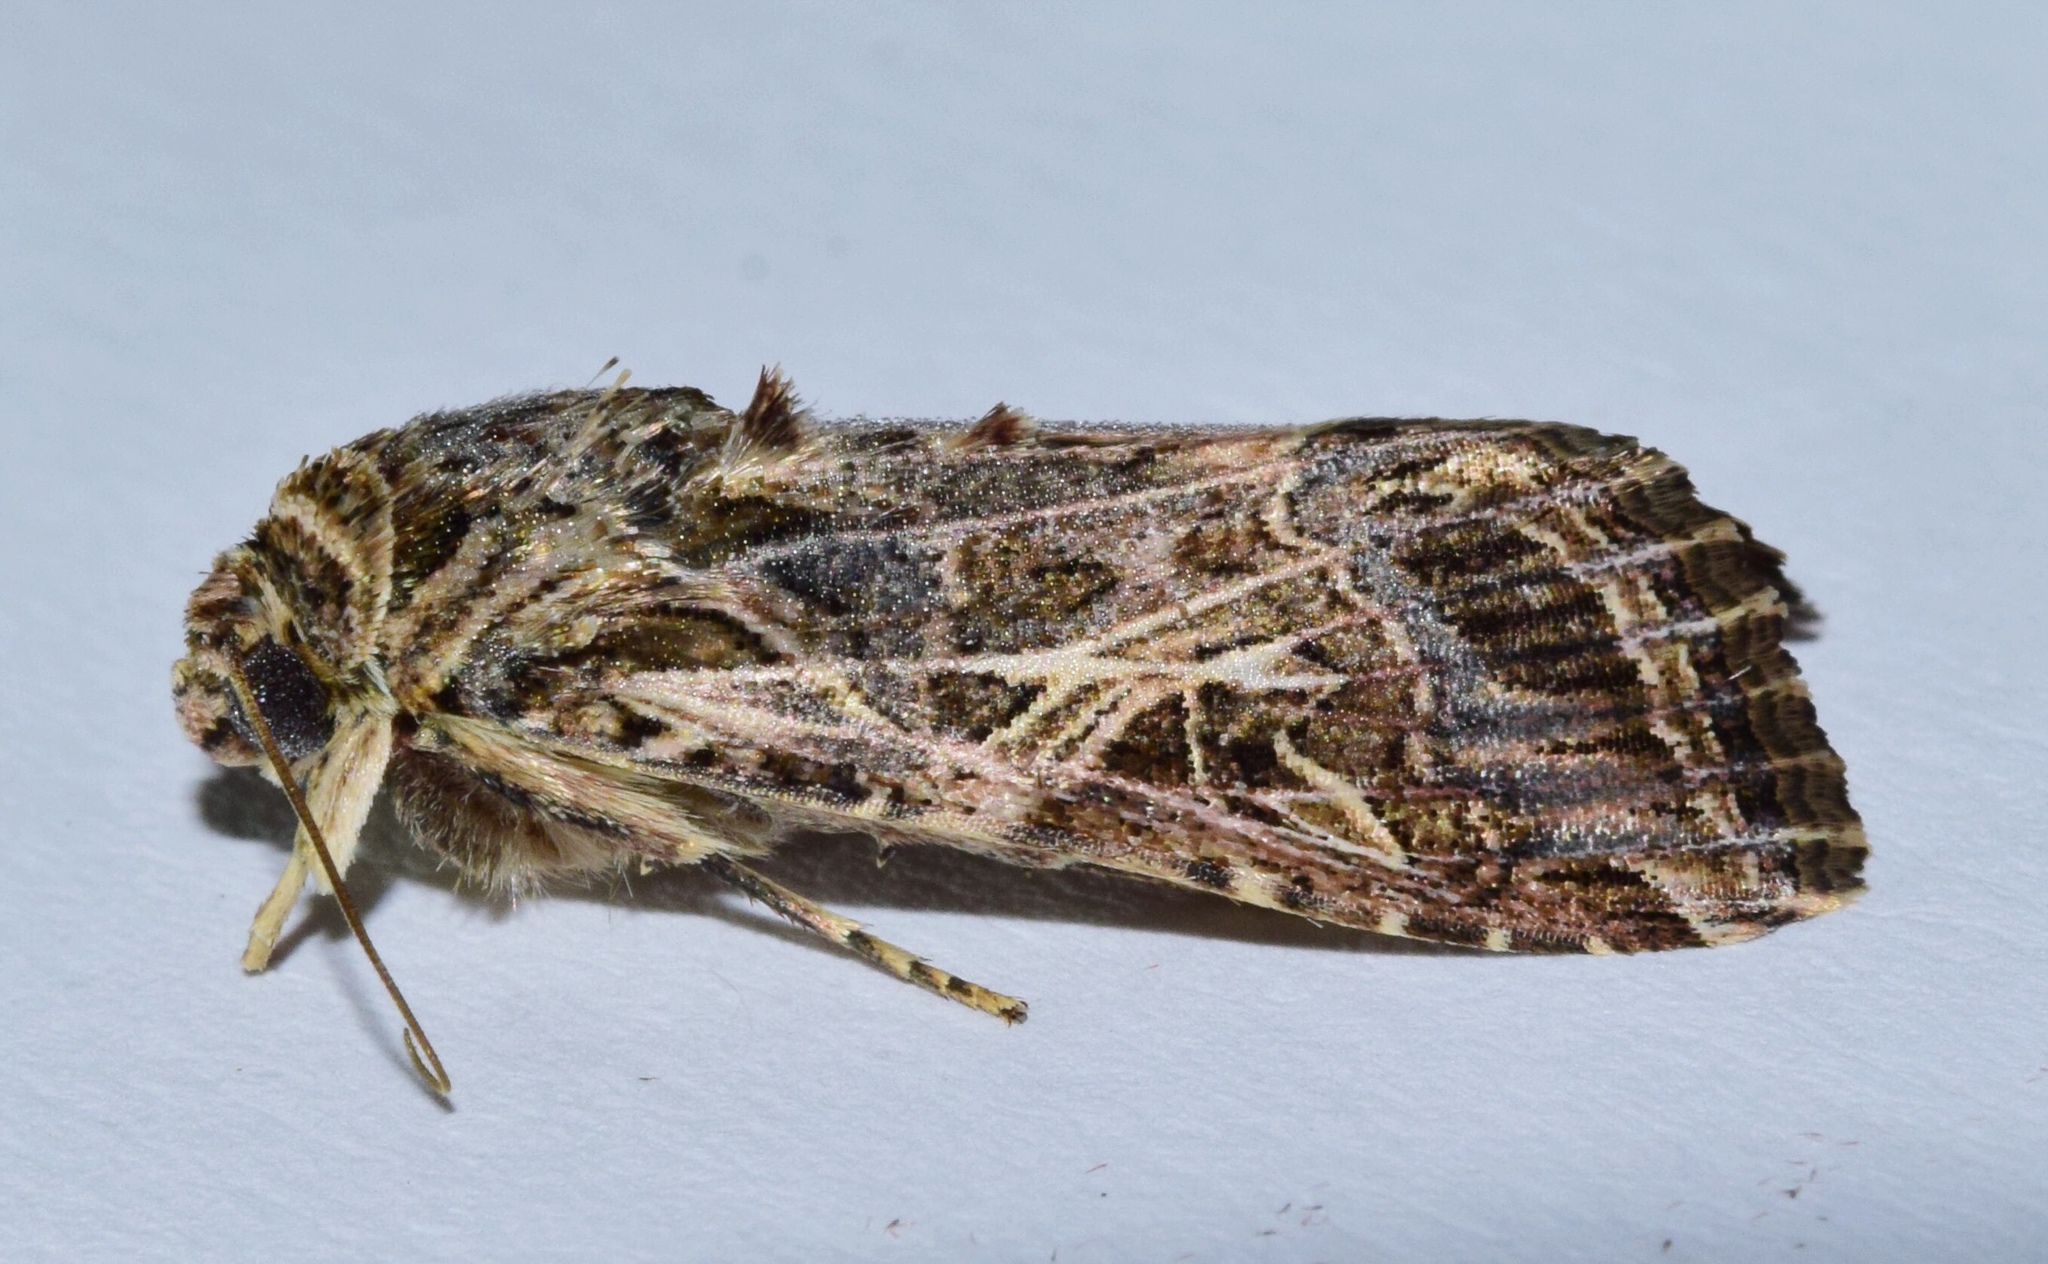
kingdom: Animalia
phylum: Arthropoda
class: Insecta
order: Lepidoptera
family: Noctuidae
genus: Spodoptera
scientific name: Spodoptera littoralis
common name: Egyptian cotton leafworm
